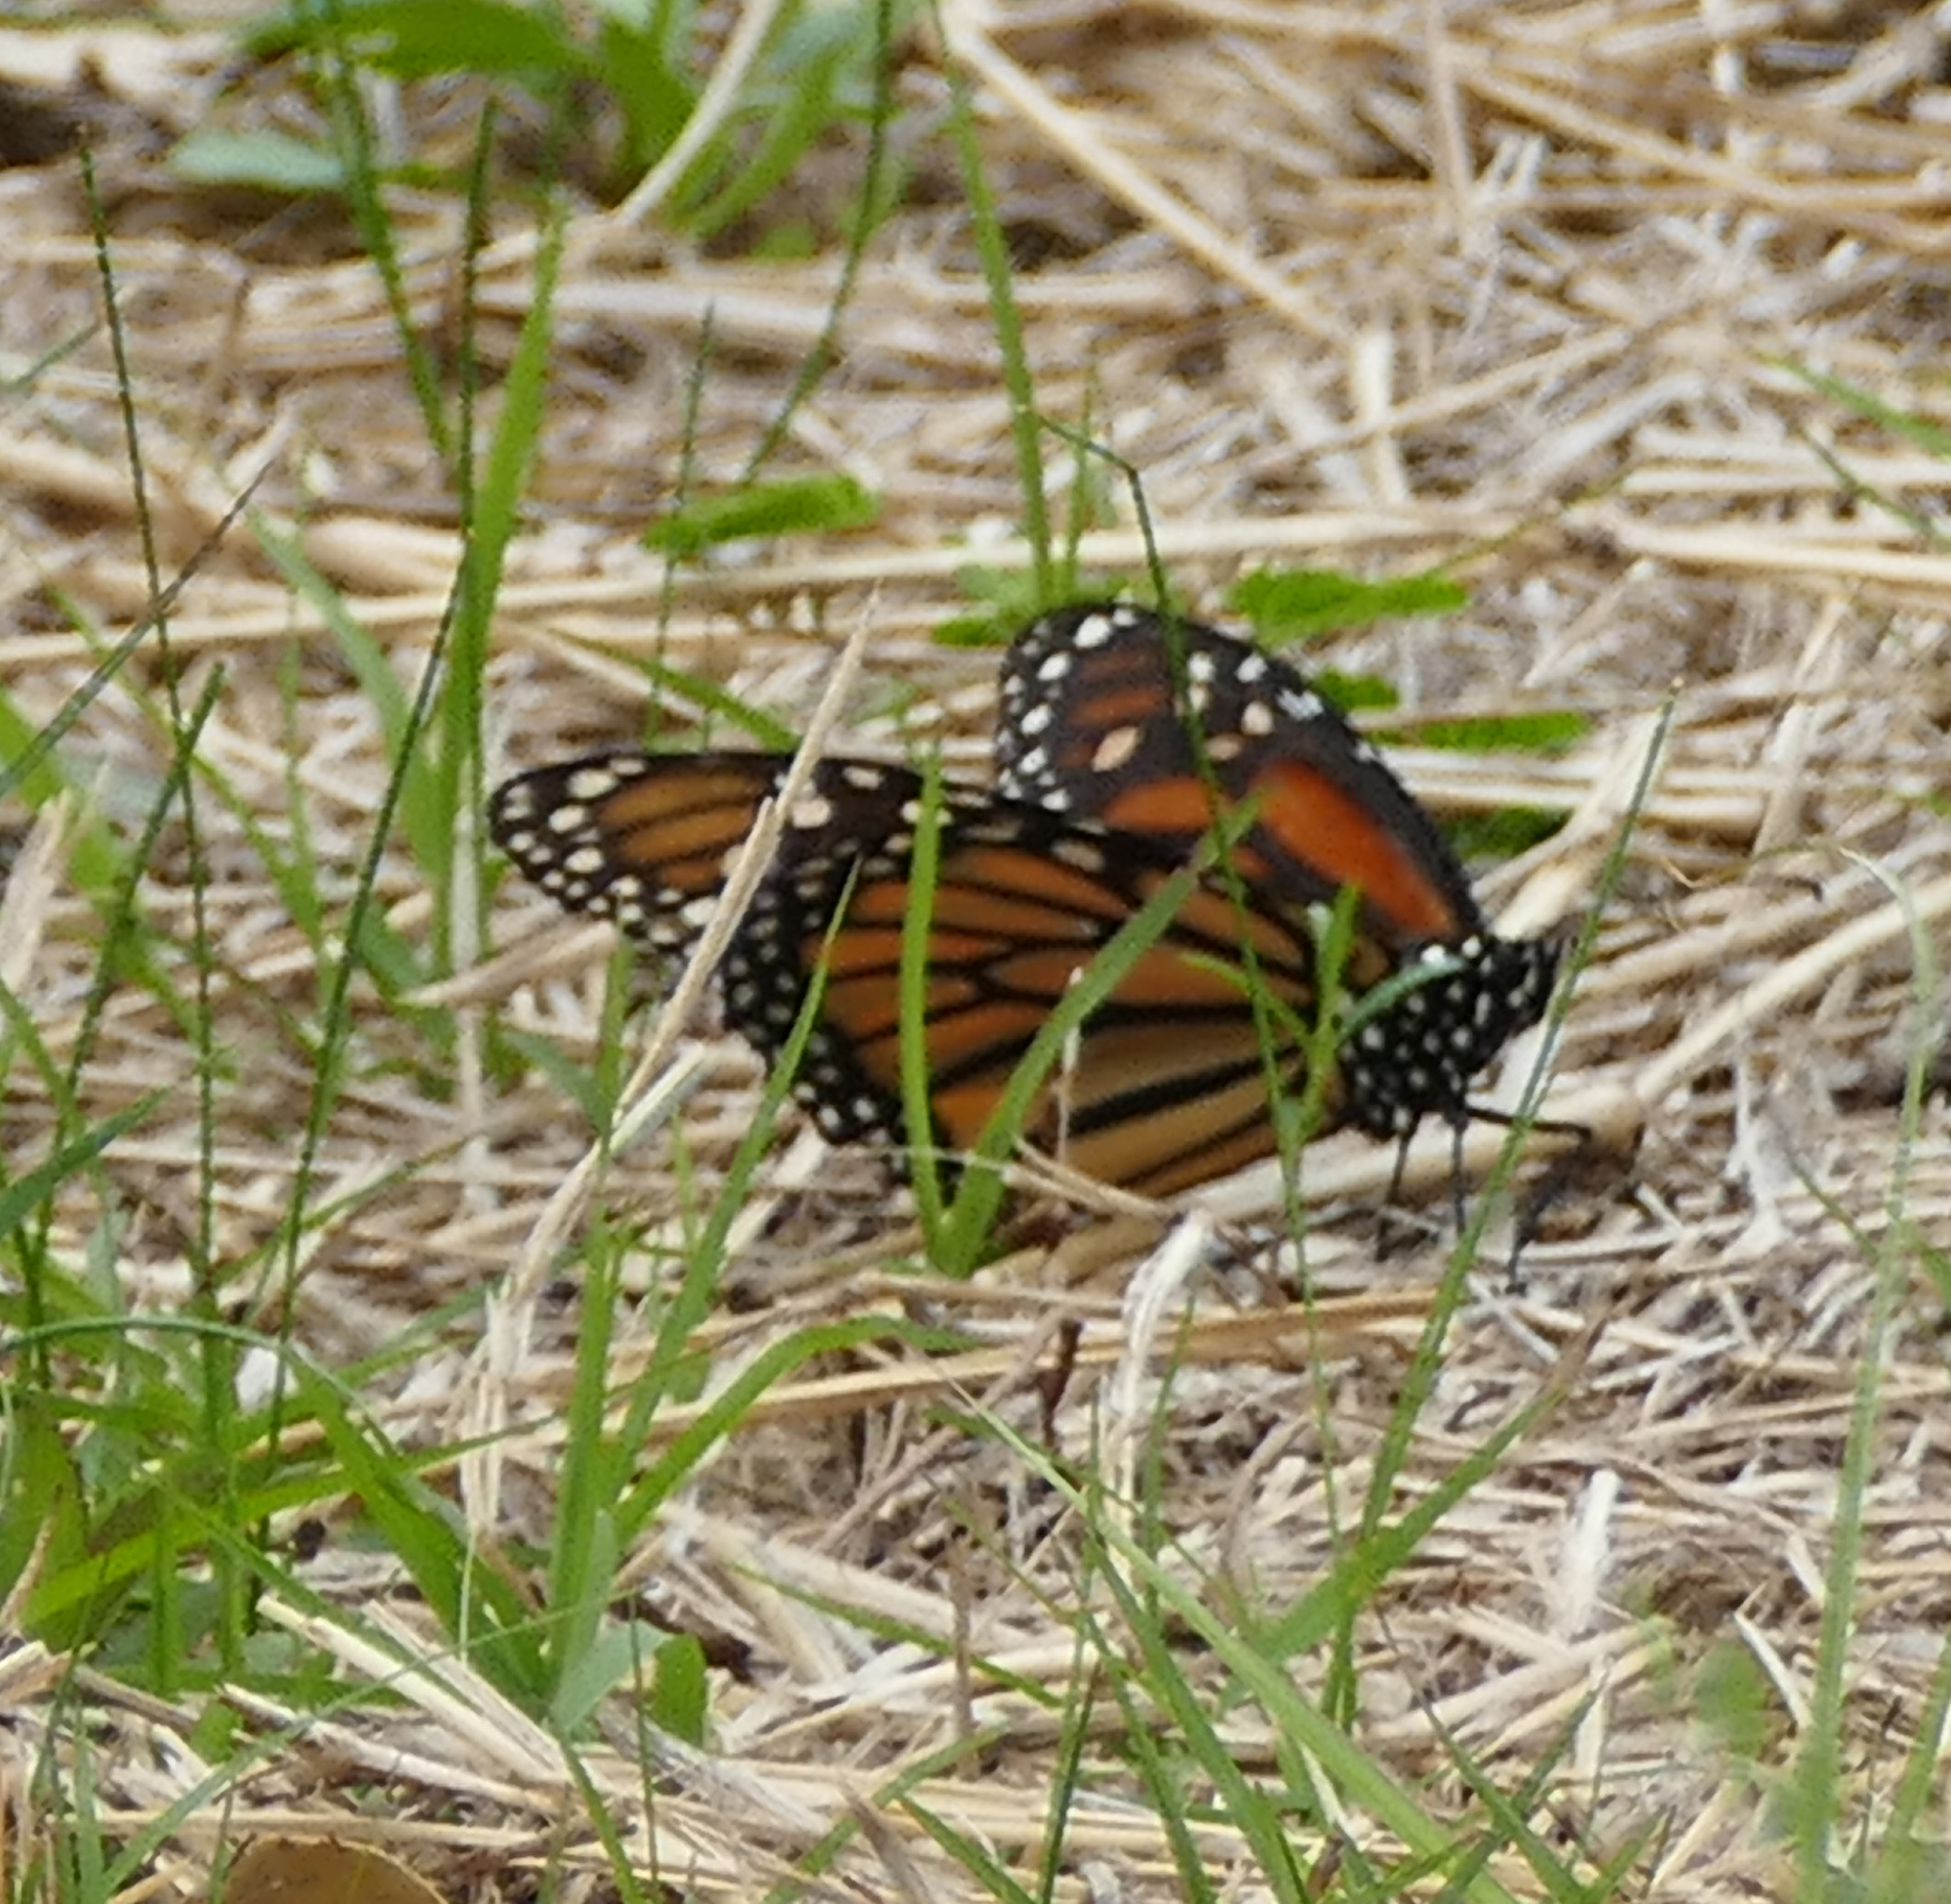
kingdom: Animalia
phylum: Arthropoda
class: Insecta
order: Lepidoptera
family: Nymphalidae
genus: Danaus
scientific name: Danaus plexippus
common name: Monarch
